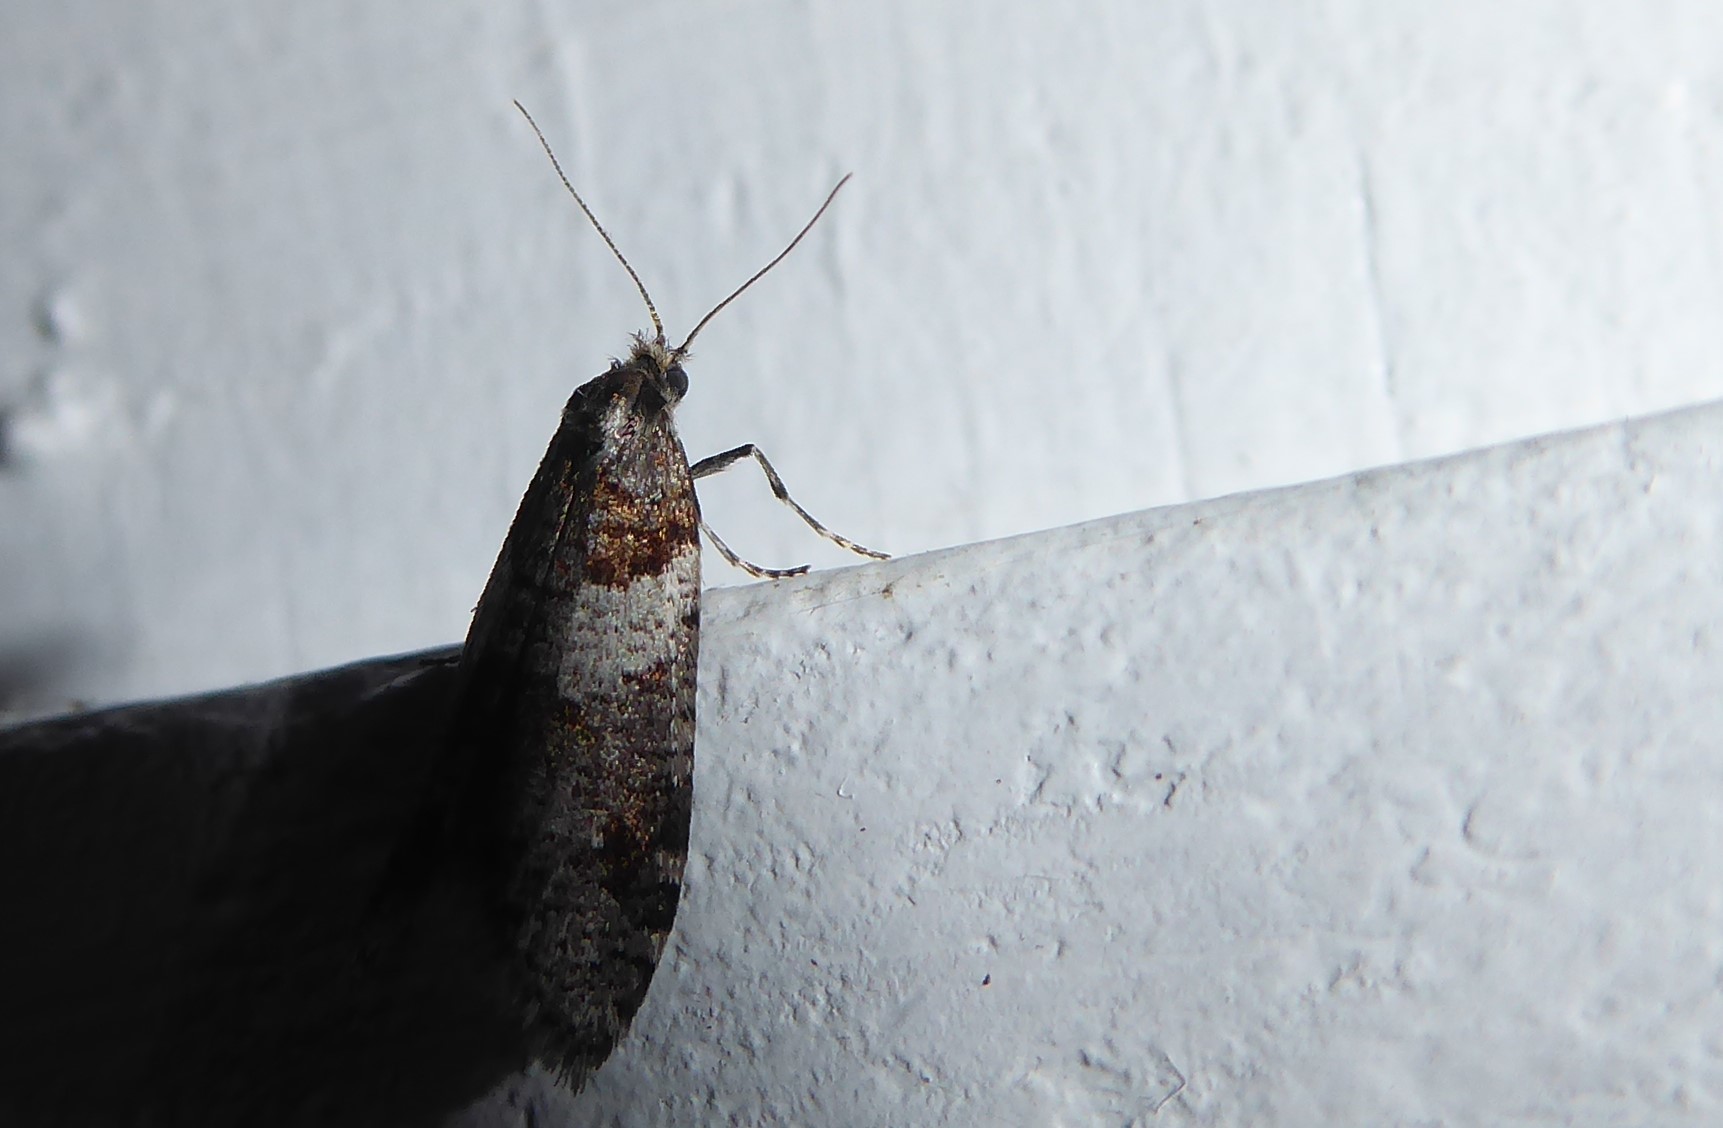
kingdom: Animalia
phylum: Arthropoda
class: Insecta
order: Lepidoptera
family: Psychidae
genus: Lepidoscia
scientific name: Lepidoscia heliochares
